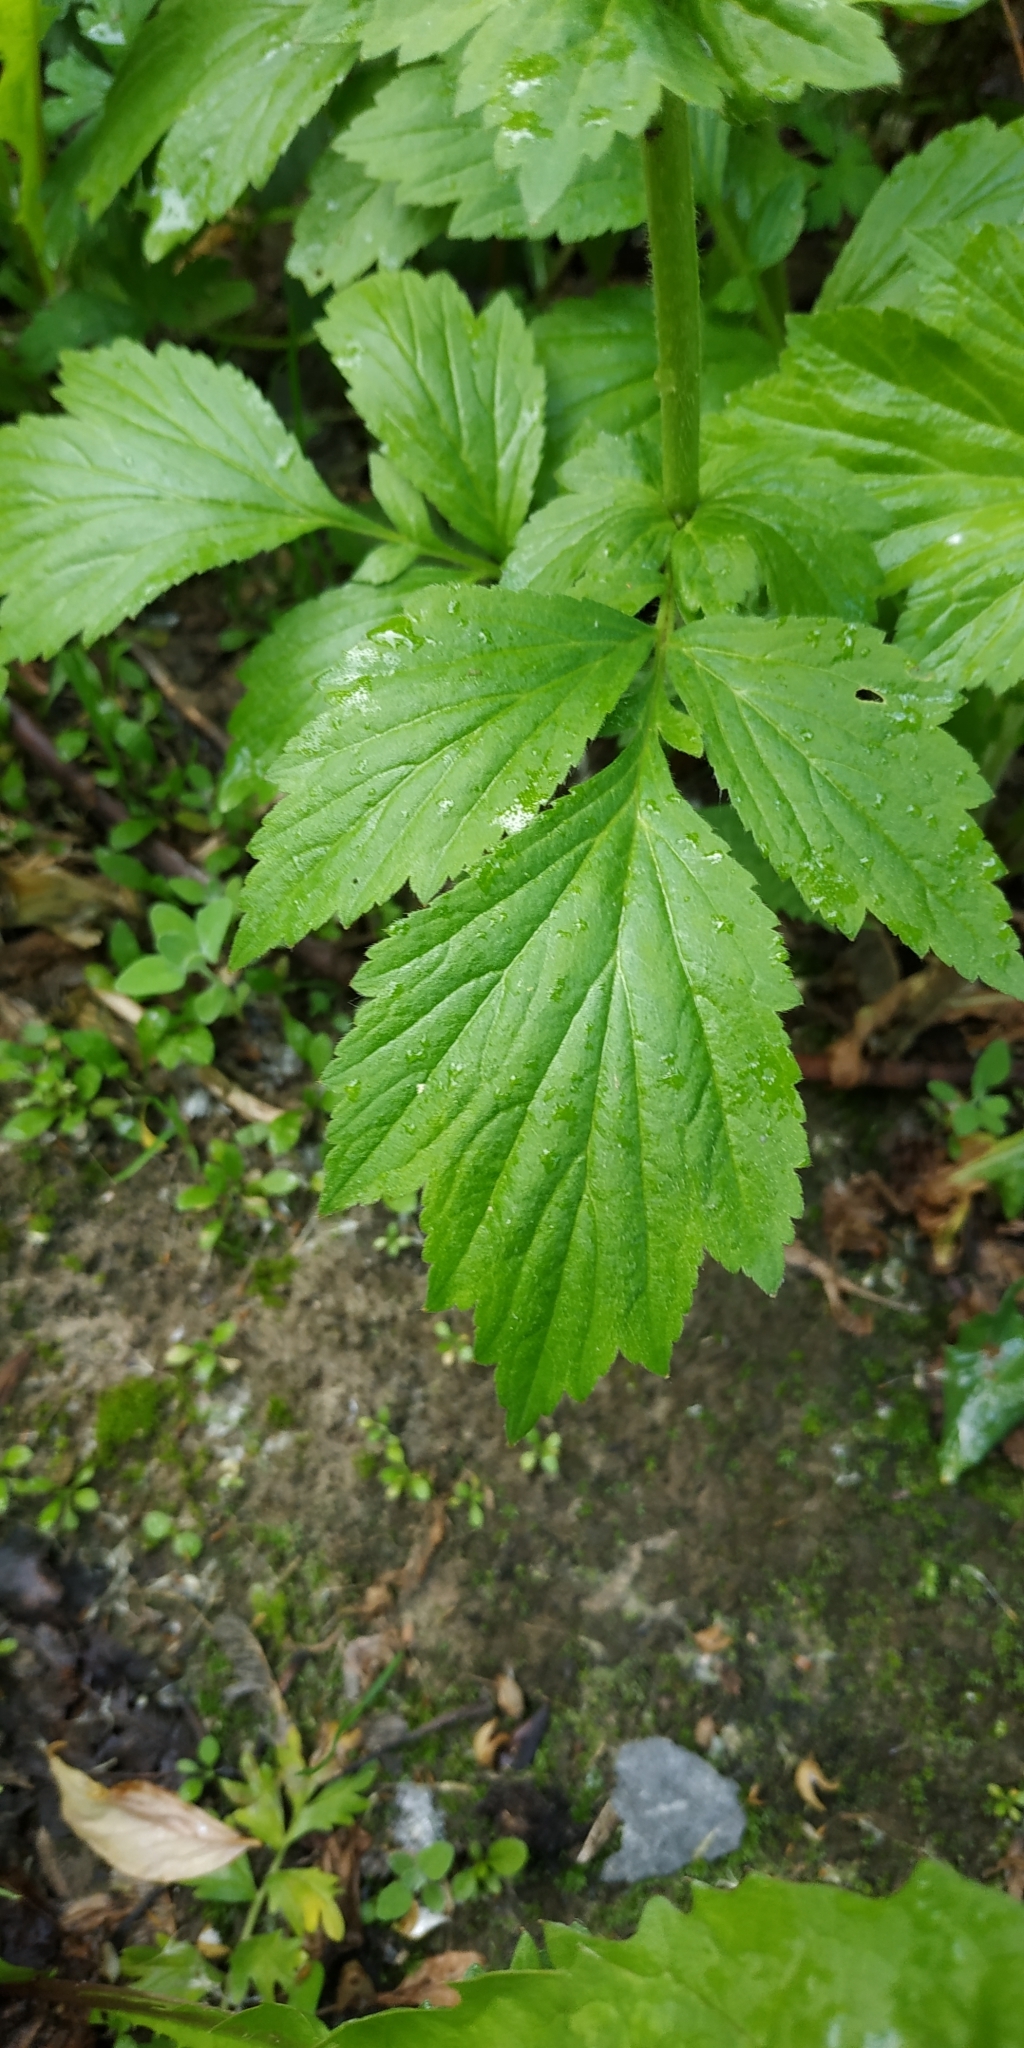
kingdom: Plantae
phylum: Tracheophyta
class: Magnoliopsida
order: Rosales
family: Rosaceae
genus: Geum
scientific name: Geum aleppicum
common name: Yellow avens
